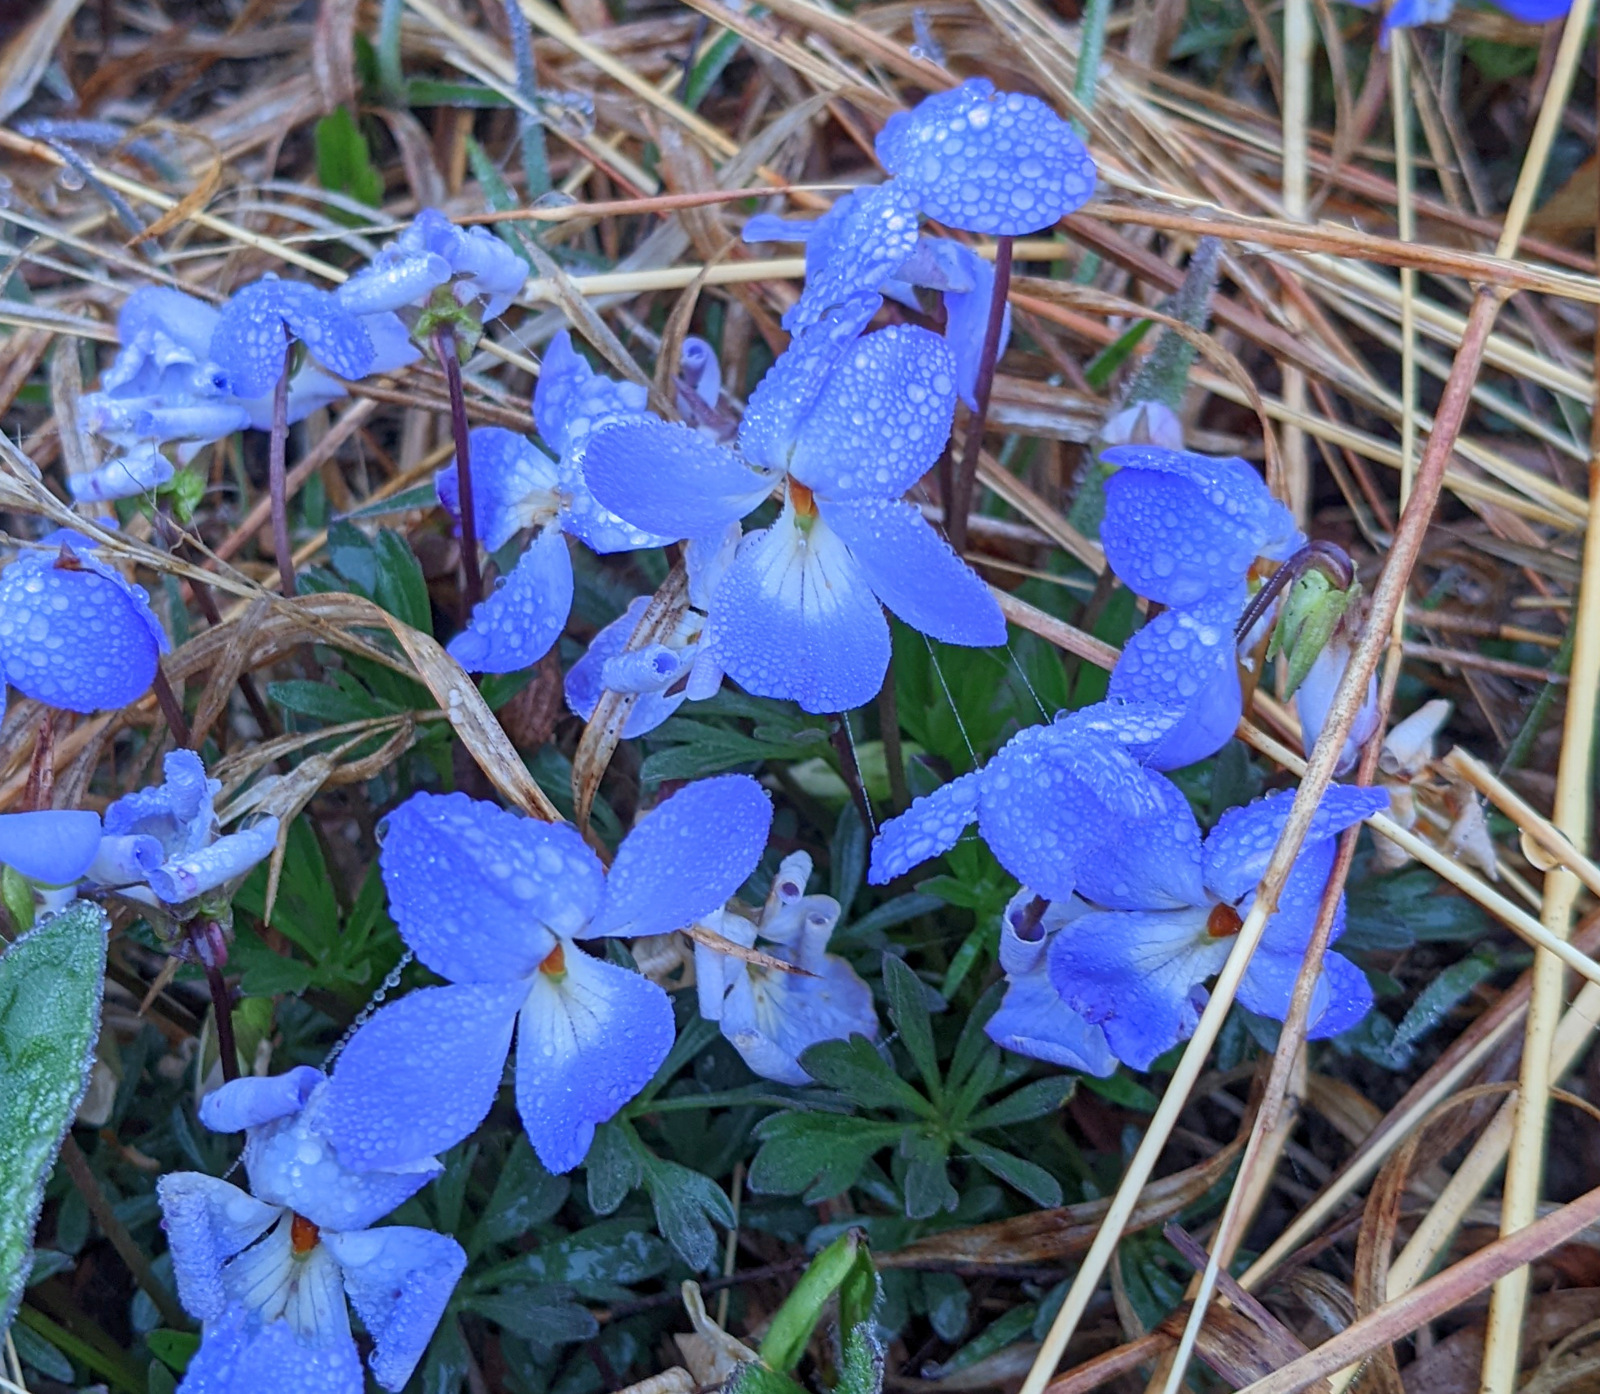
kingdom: Plantae
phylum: Tracheophyta
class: Magnoliopsida
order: Malpighiales
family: Violaceae
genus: Viola
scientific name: Viola pedata
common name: Pansy violet
